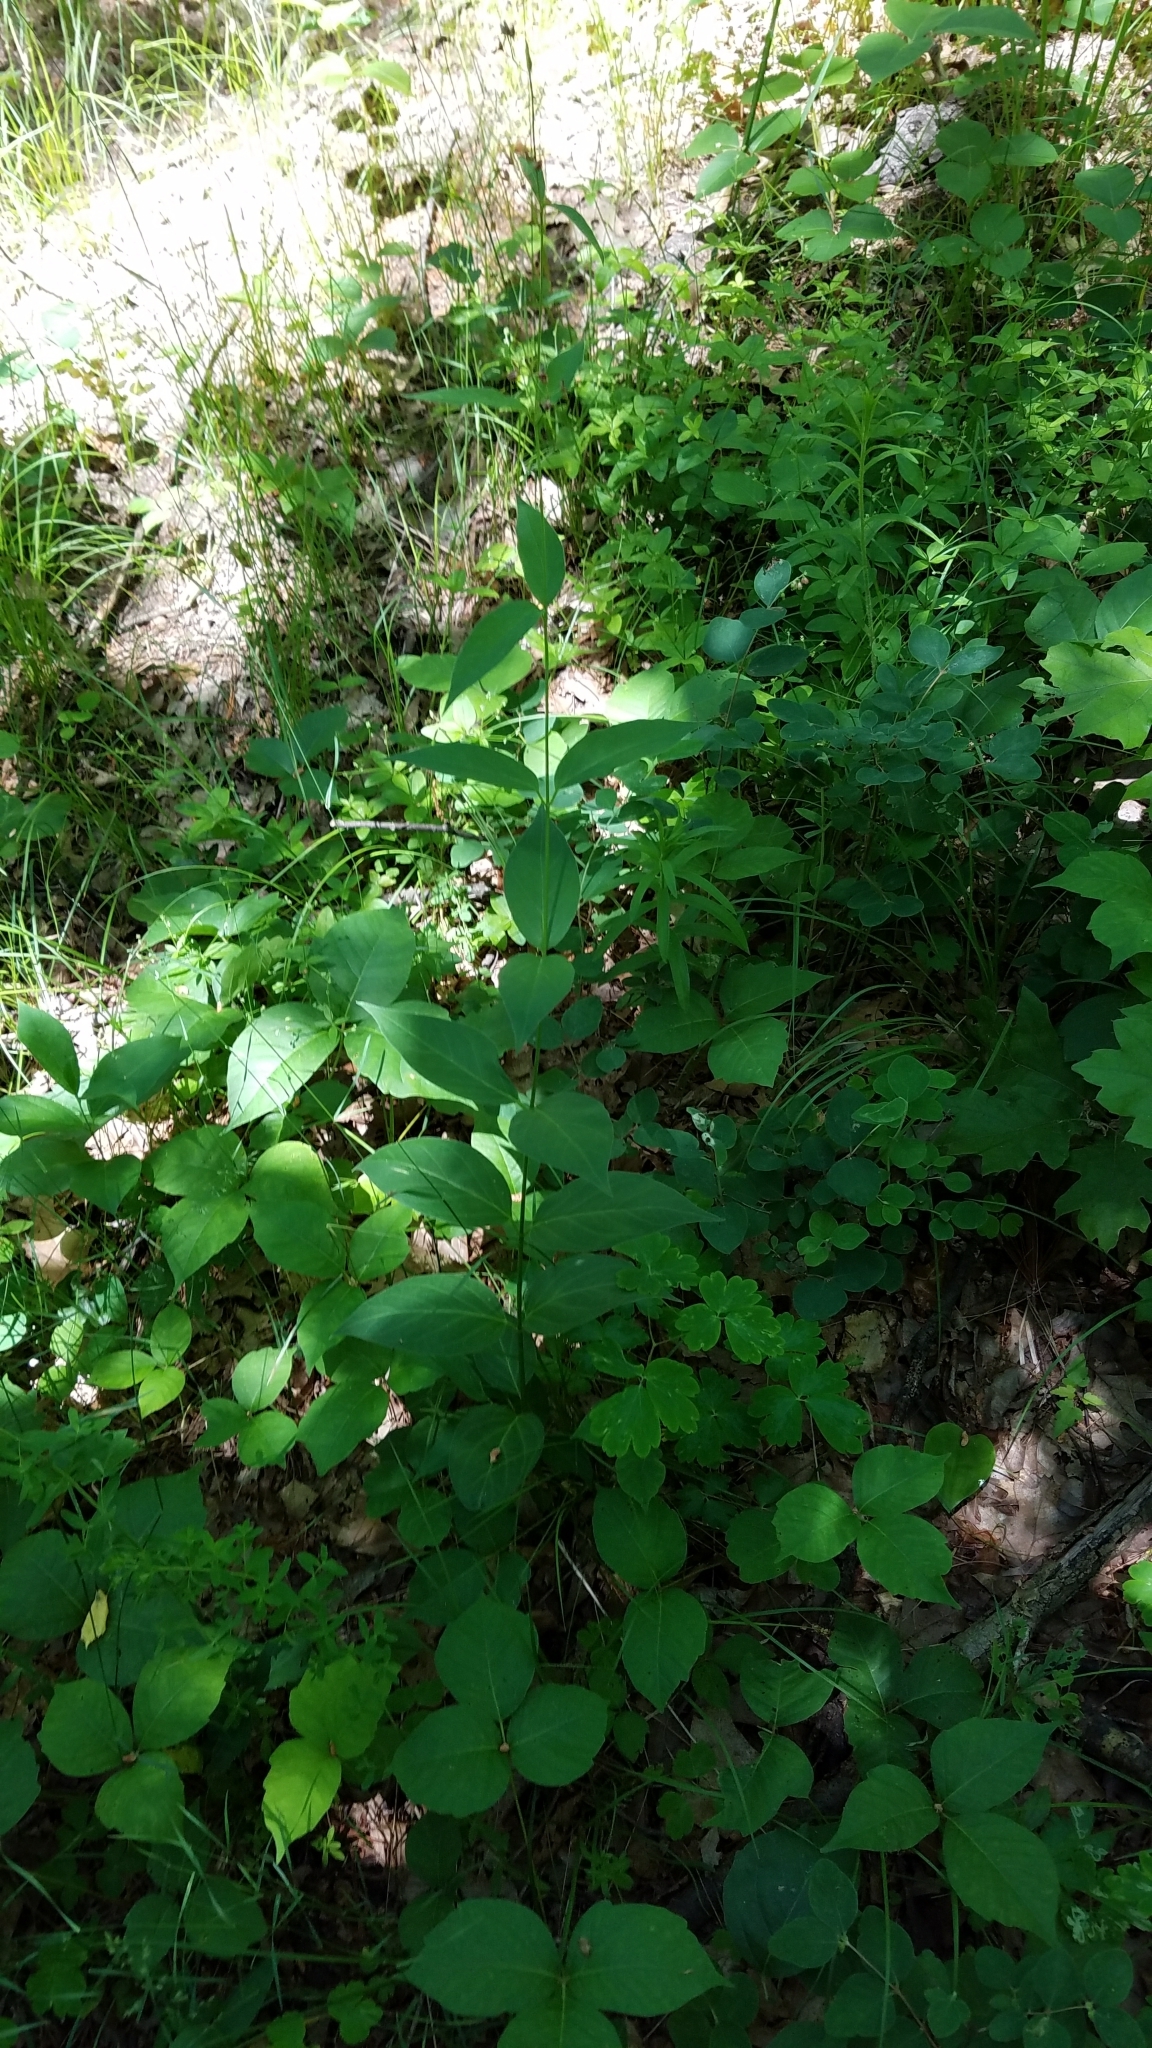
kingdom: Plantae
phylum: Tracheophyta
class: Magnoliopsida
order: Gentianales
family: Apocynaceae
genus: Vincetoxicum
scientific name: Vincetoxicum rossicum
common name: Dog-strangling vine
